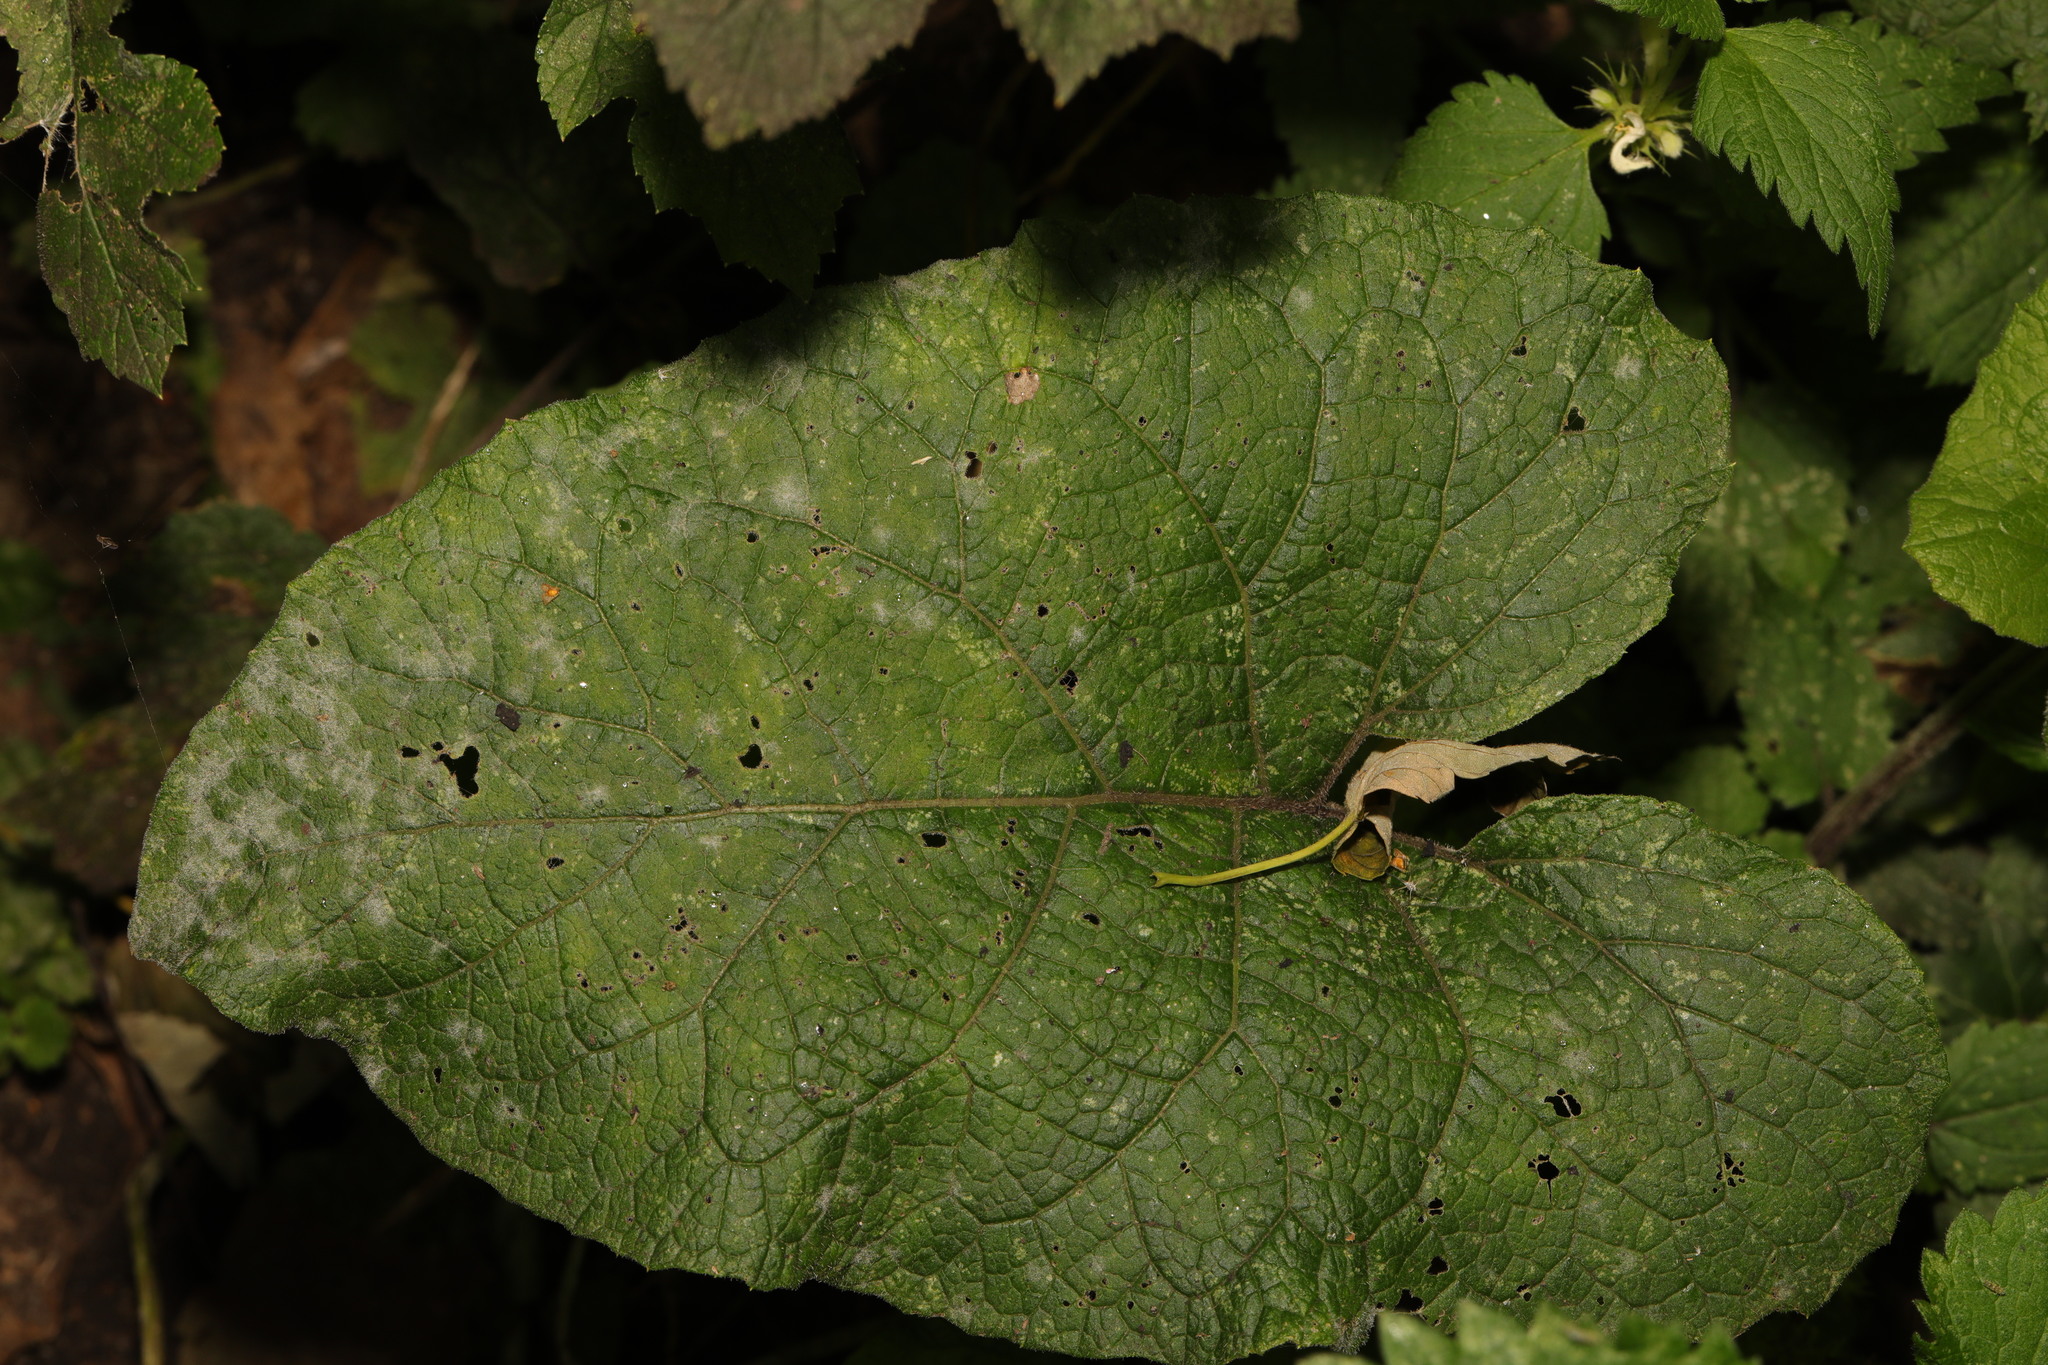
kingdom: Plantae
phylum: Tracheophyta
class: Magnoliopsida
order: Asterales
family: Asteraceae
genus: Arctium
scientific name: Arctium minus
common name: Lesser burdock
